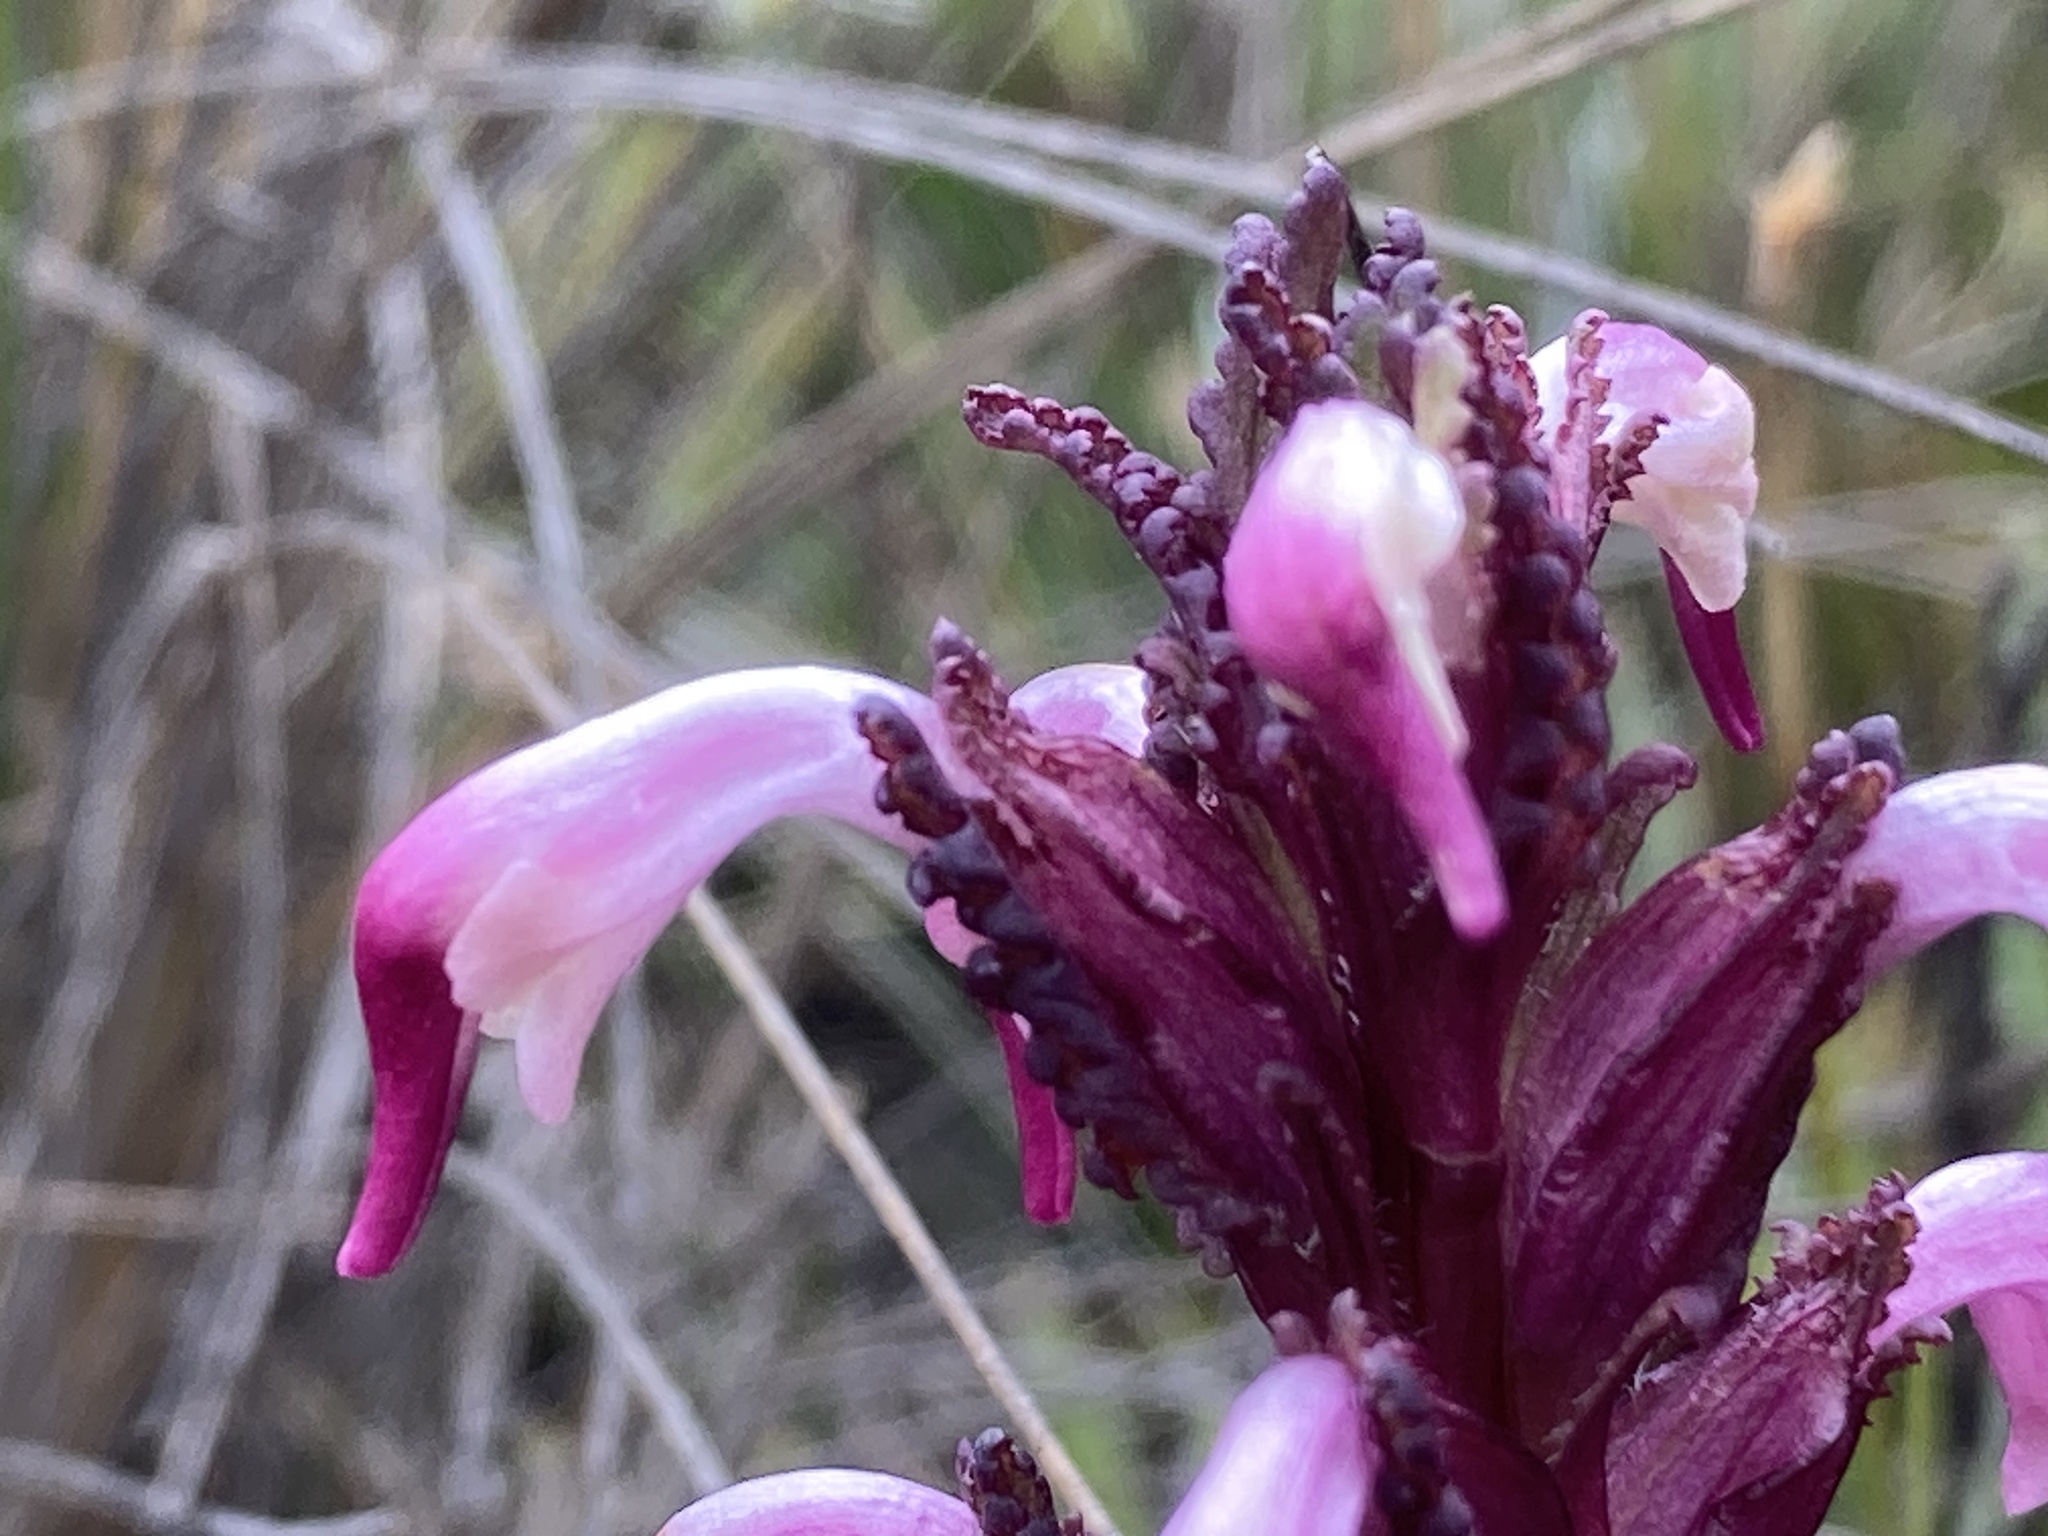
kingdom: Plantae
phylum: Tracheophyta
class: Magnoliopsida
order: Lamiales
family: Orobanchaceae
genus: Pedicularis
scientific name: Pedicularis incurva
